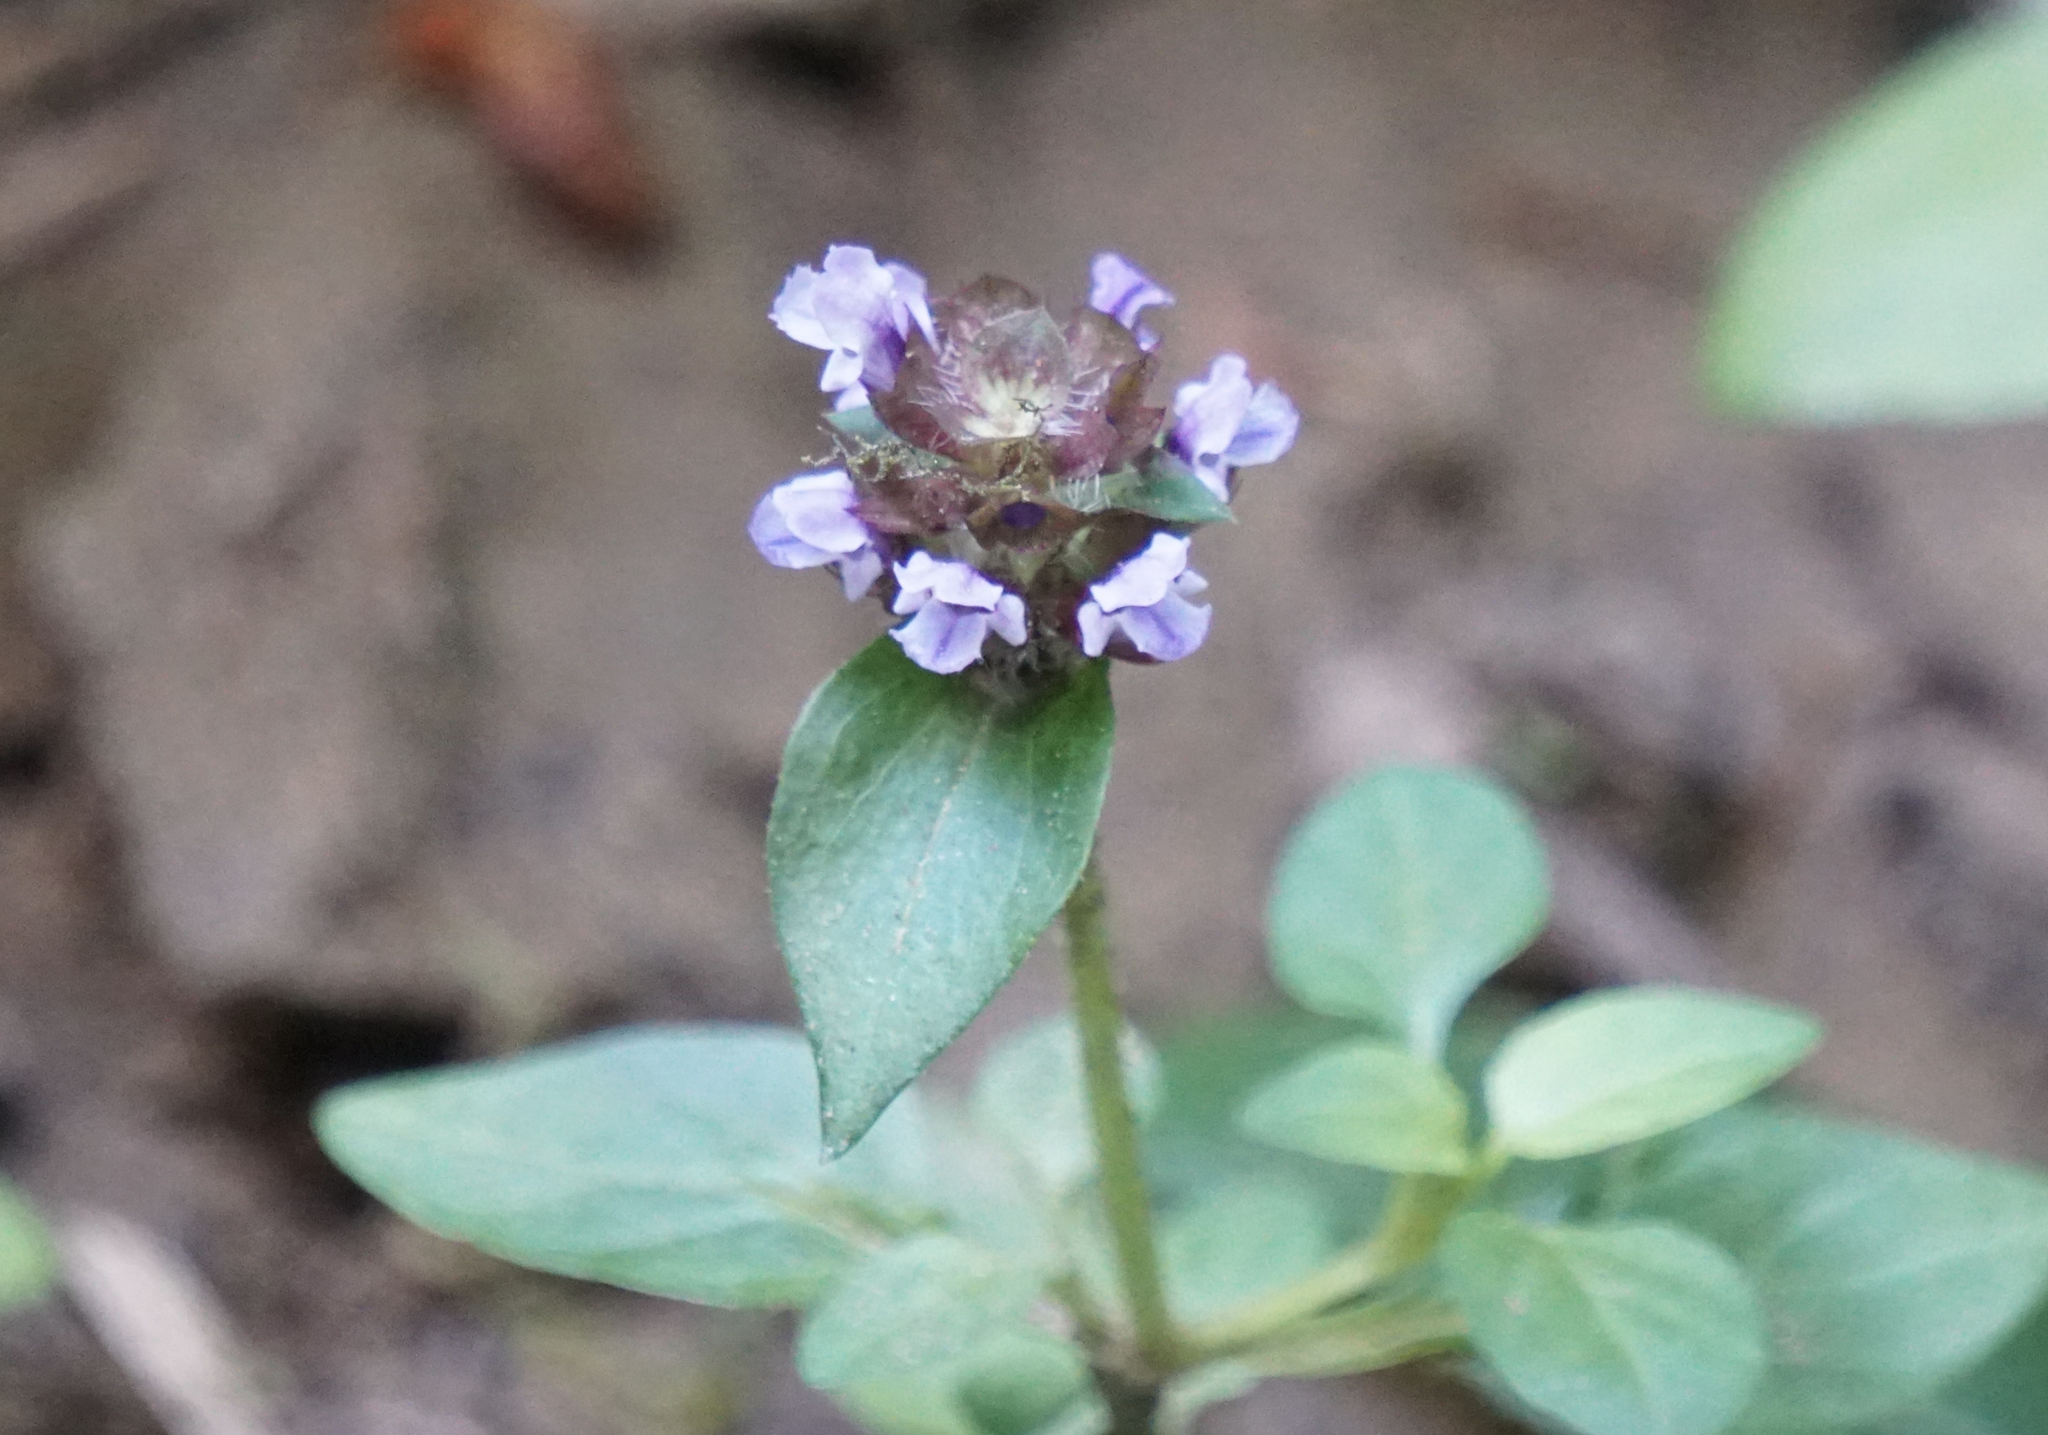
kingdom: Plantae
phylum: Tracheophyta
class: Magnoliopsida
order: Lamiales
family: Lamiaceae
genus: Prunella
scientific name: Prunella vulgaris
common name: Heal-all
